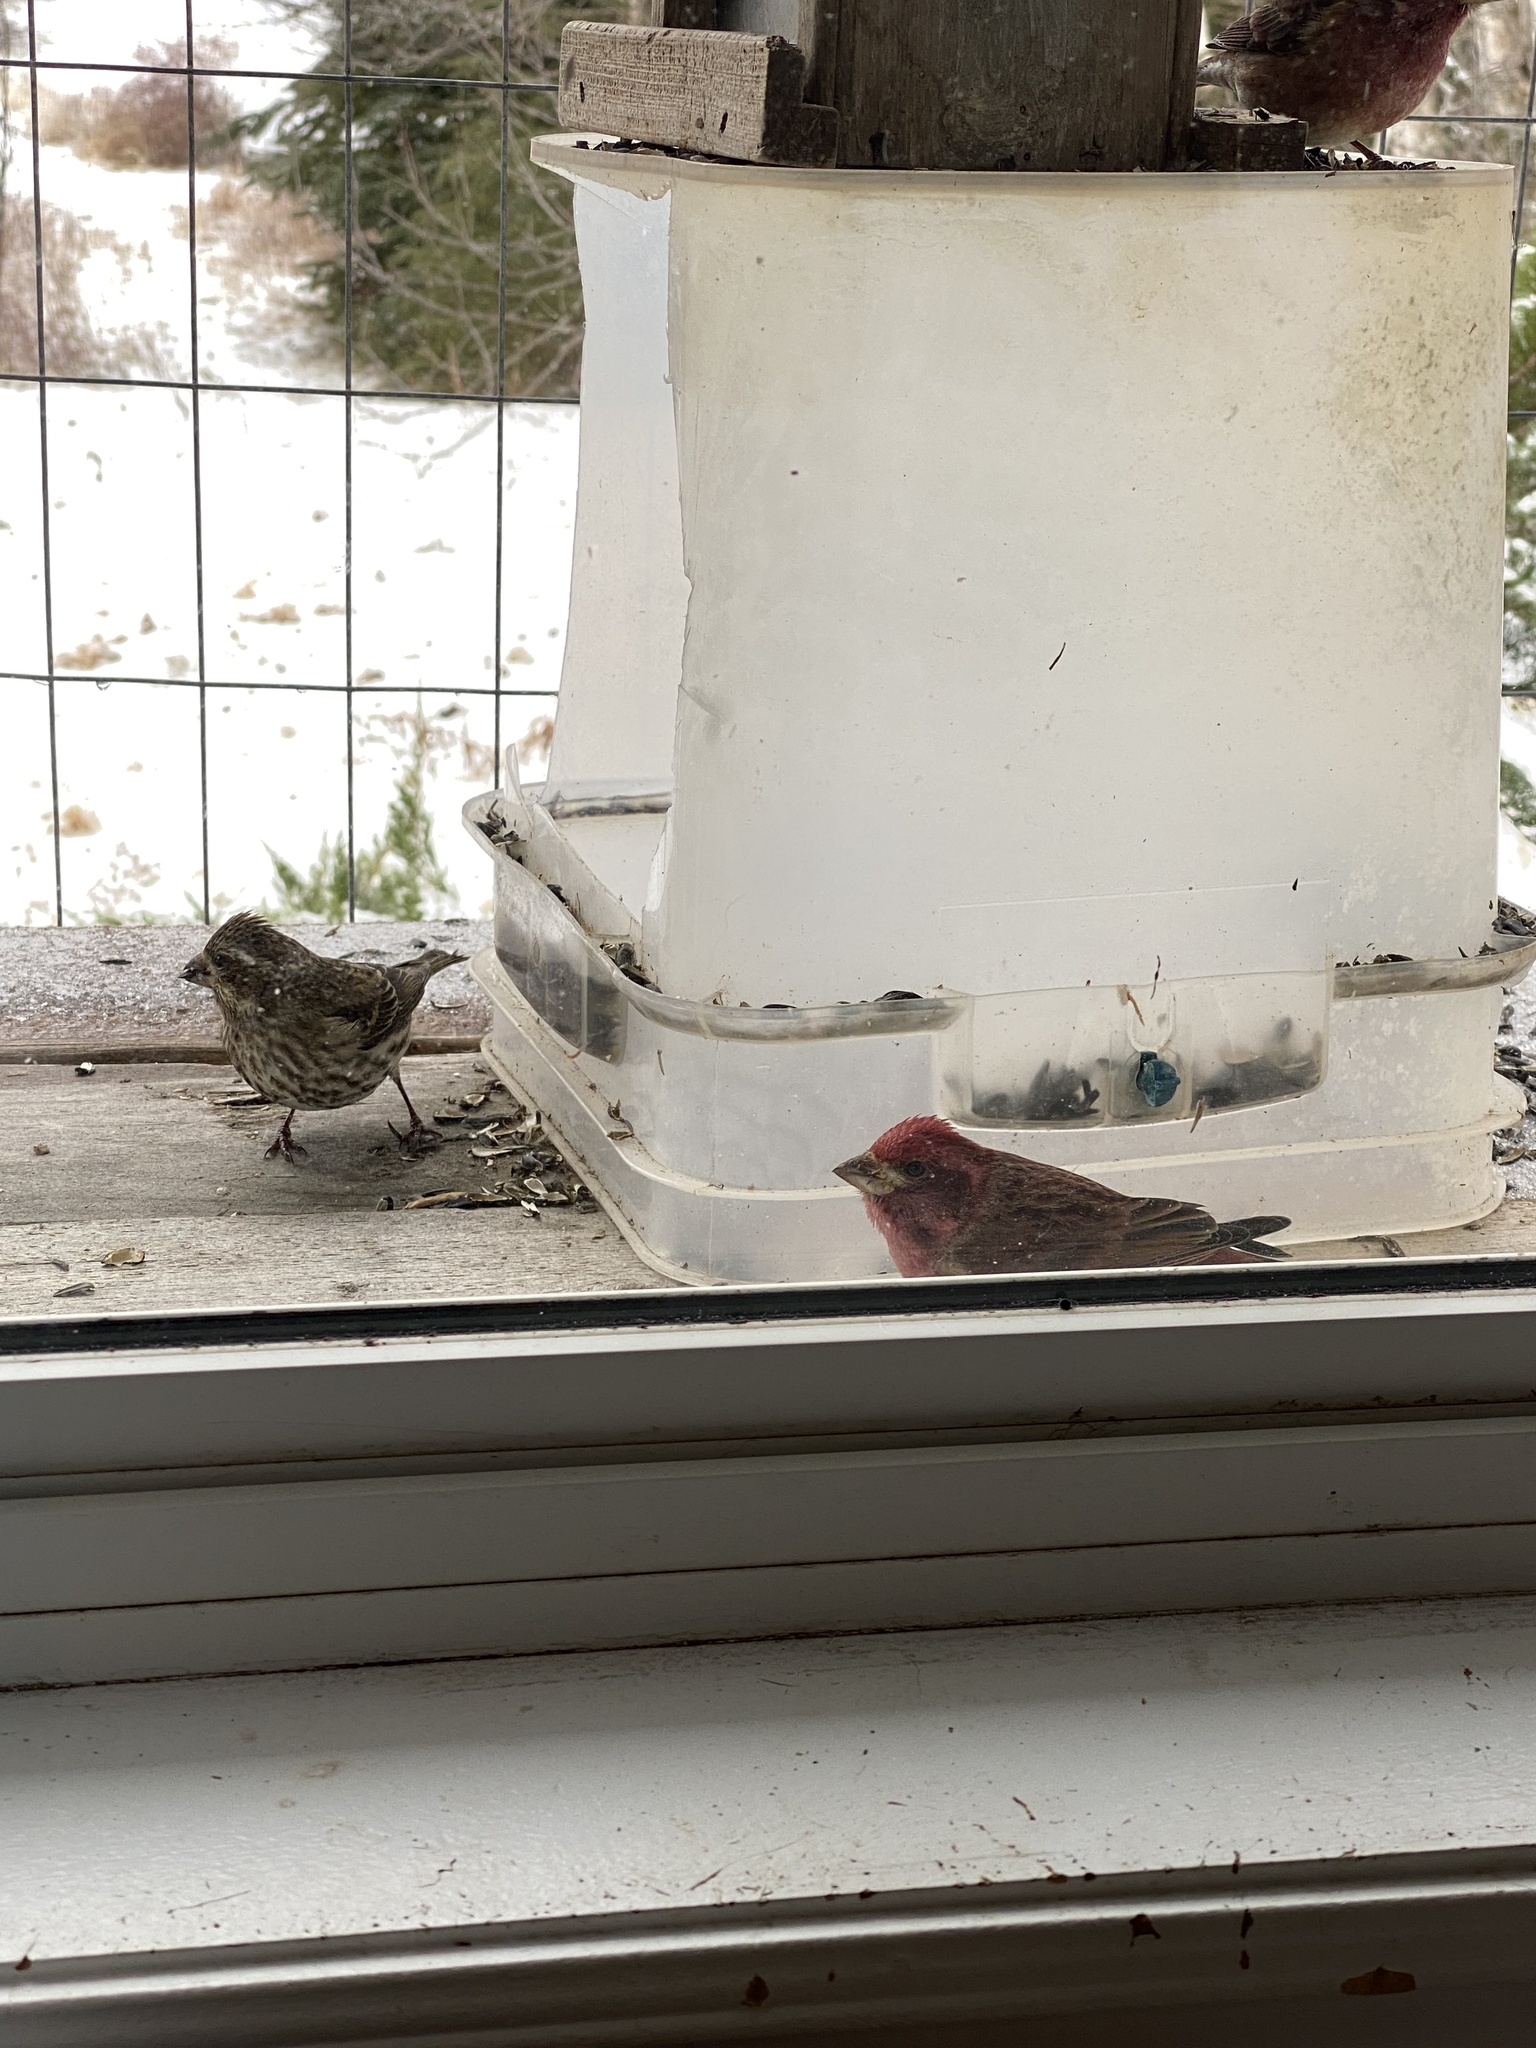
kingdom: Animalia
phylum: Chordata
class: Aves
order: Passeriformes
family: Fringillidae
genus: Haemorhous
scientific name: Haemorhous purpureus
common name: Purple finch
